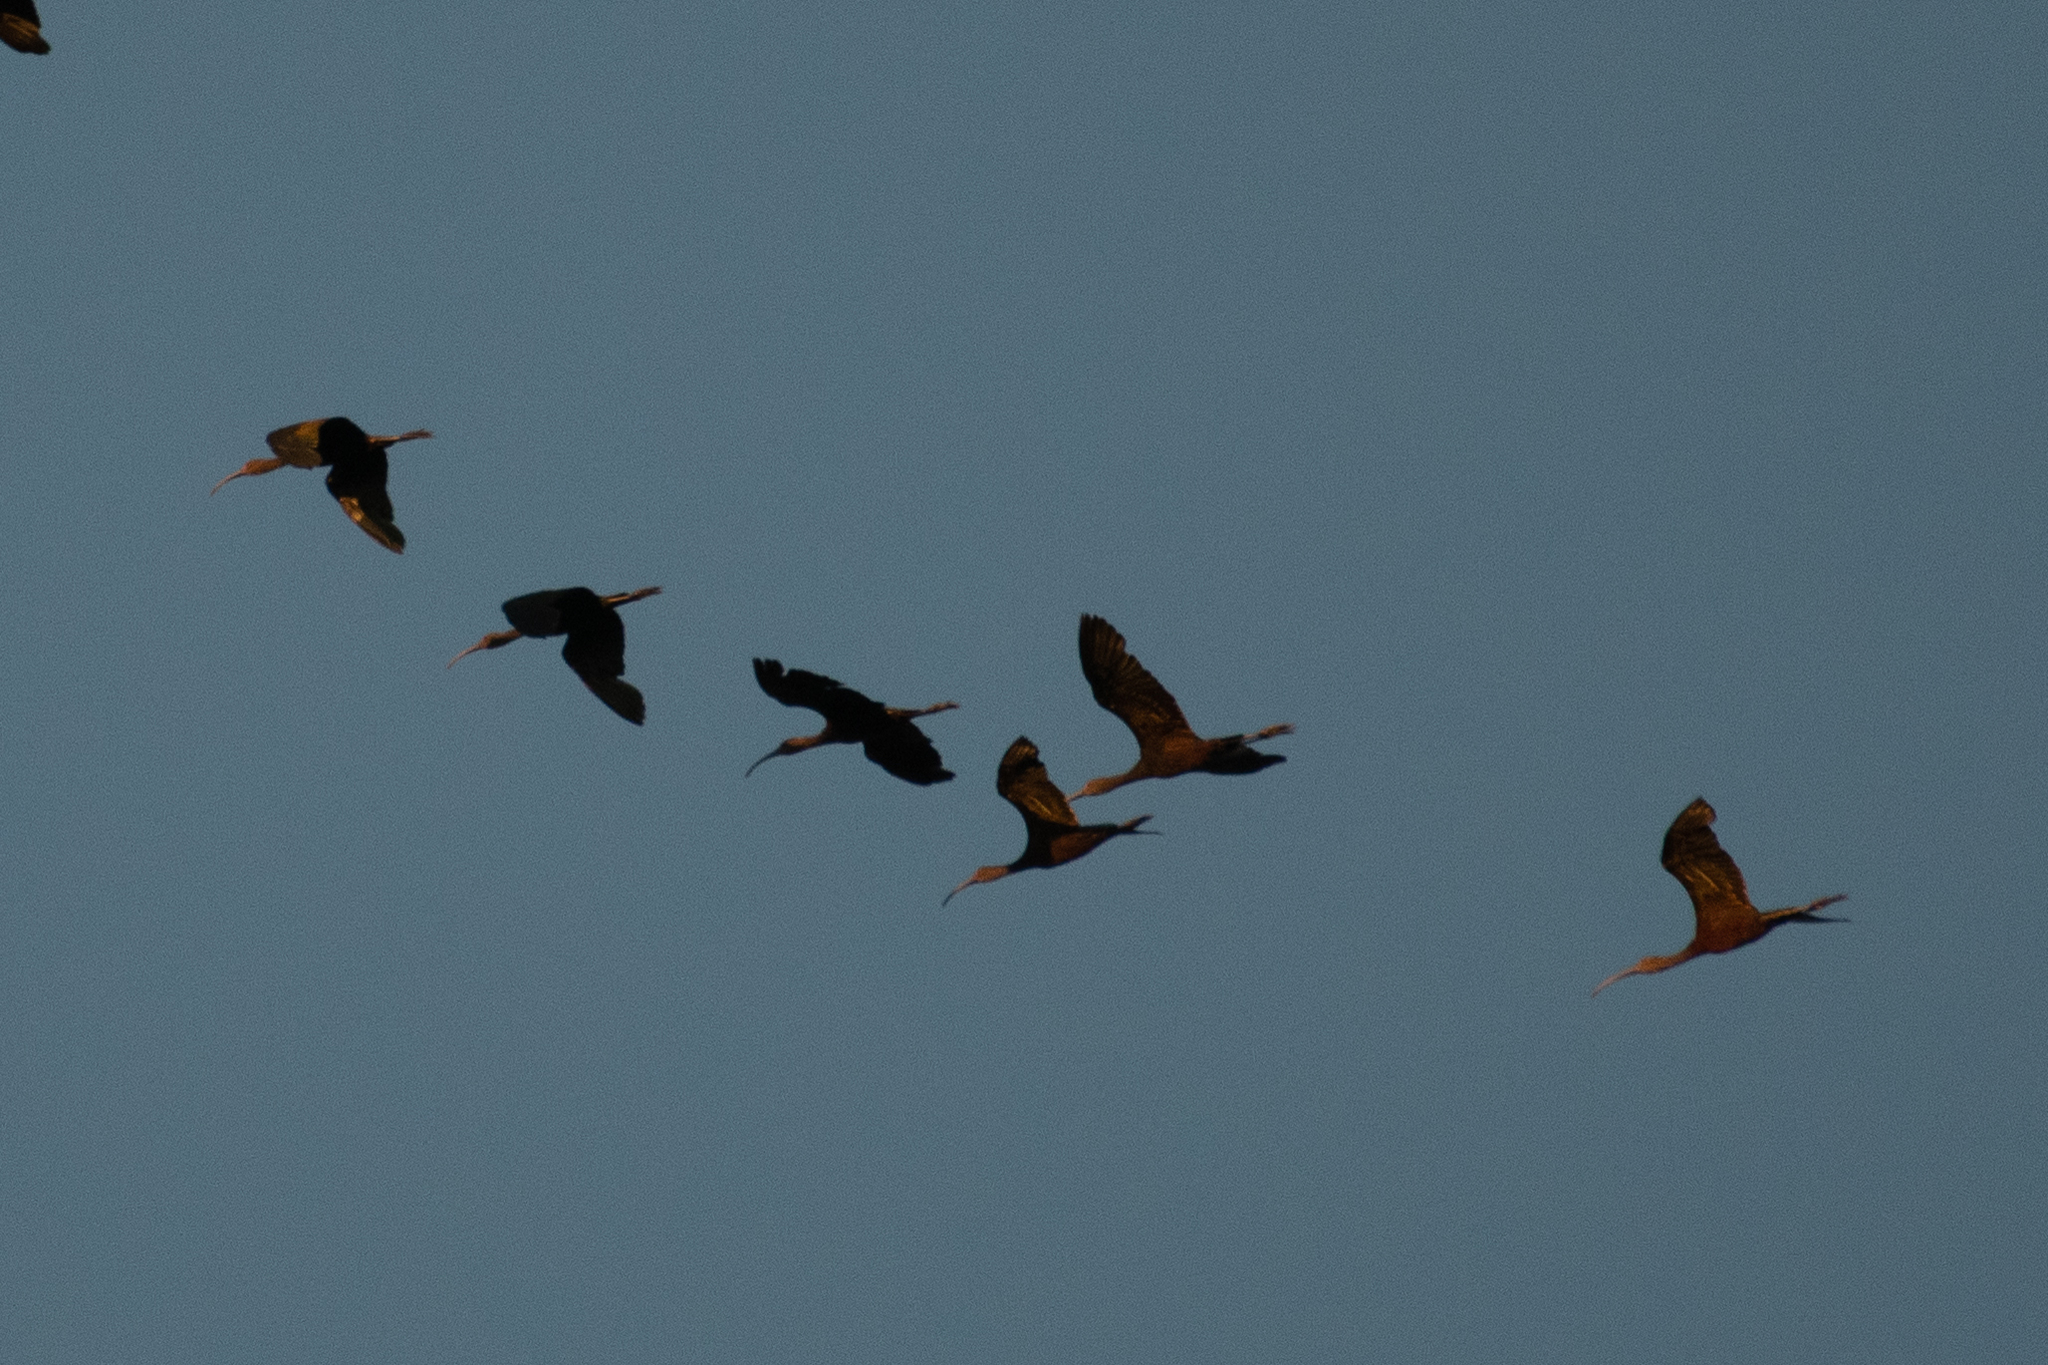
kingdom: Animalia
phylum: Chordata
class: Aves
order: Pelecaniformes
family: Threskiornithidae
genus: Plegadis
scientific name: Plegadis chihi
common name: White-faced ibis
